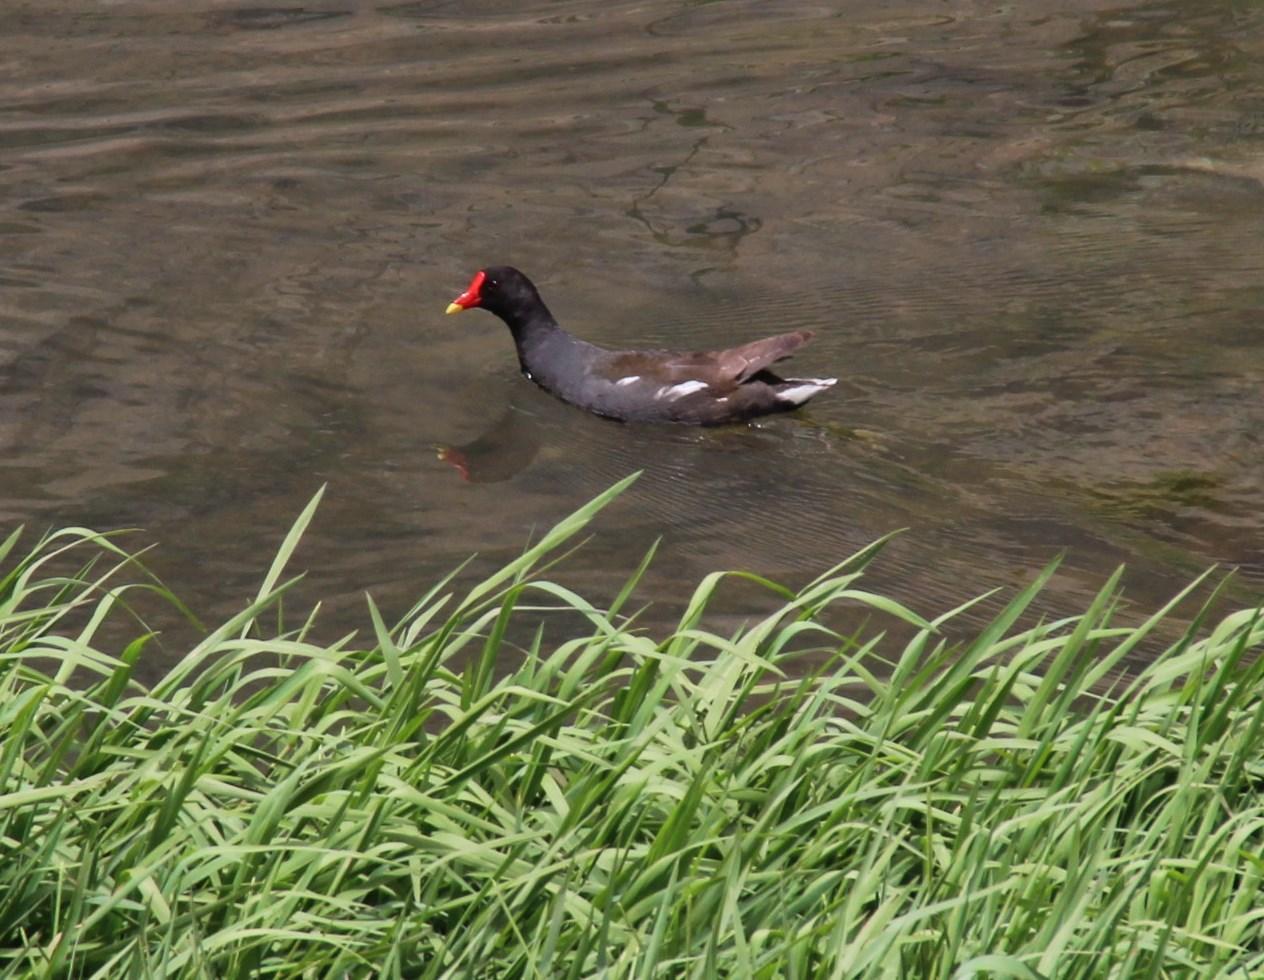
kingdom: Animalia
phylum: Chordata
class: Aves
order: Gruiformes
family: Rallidae
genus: Gallinula
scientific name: Gallinula chloropus
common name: Common moorhen
